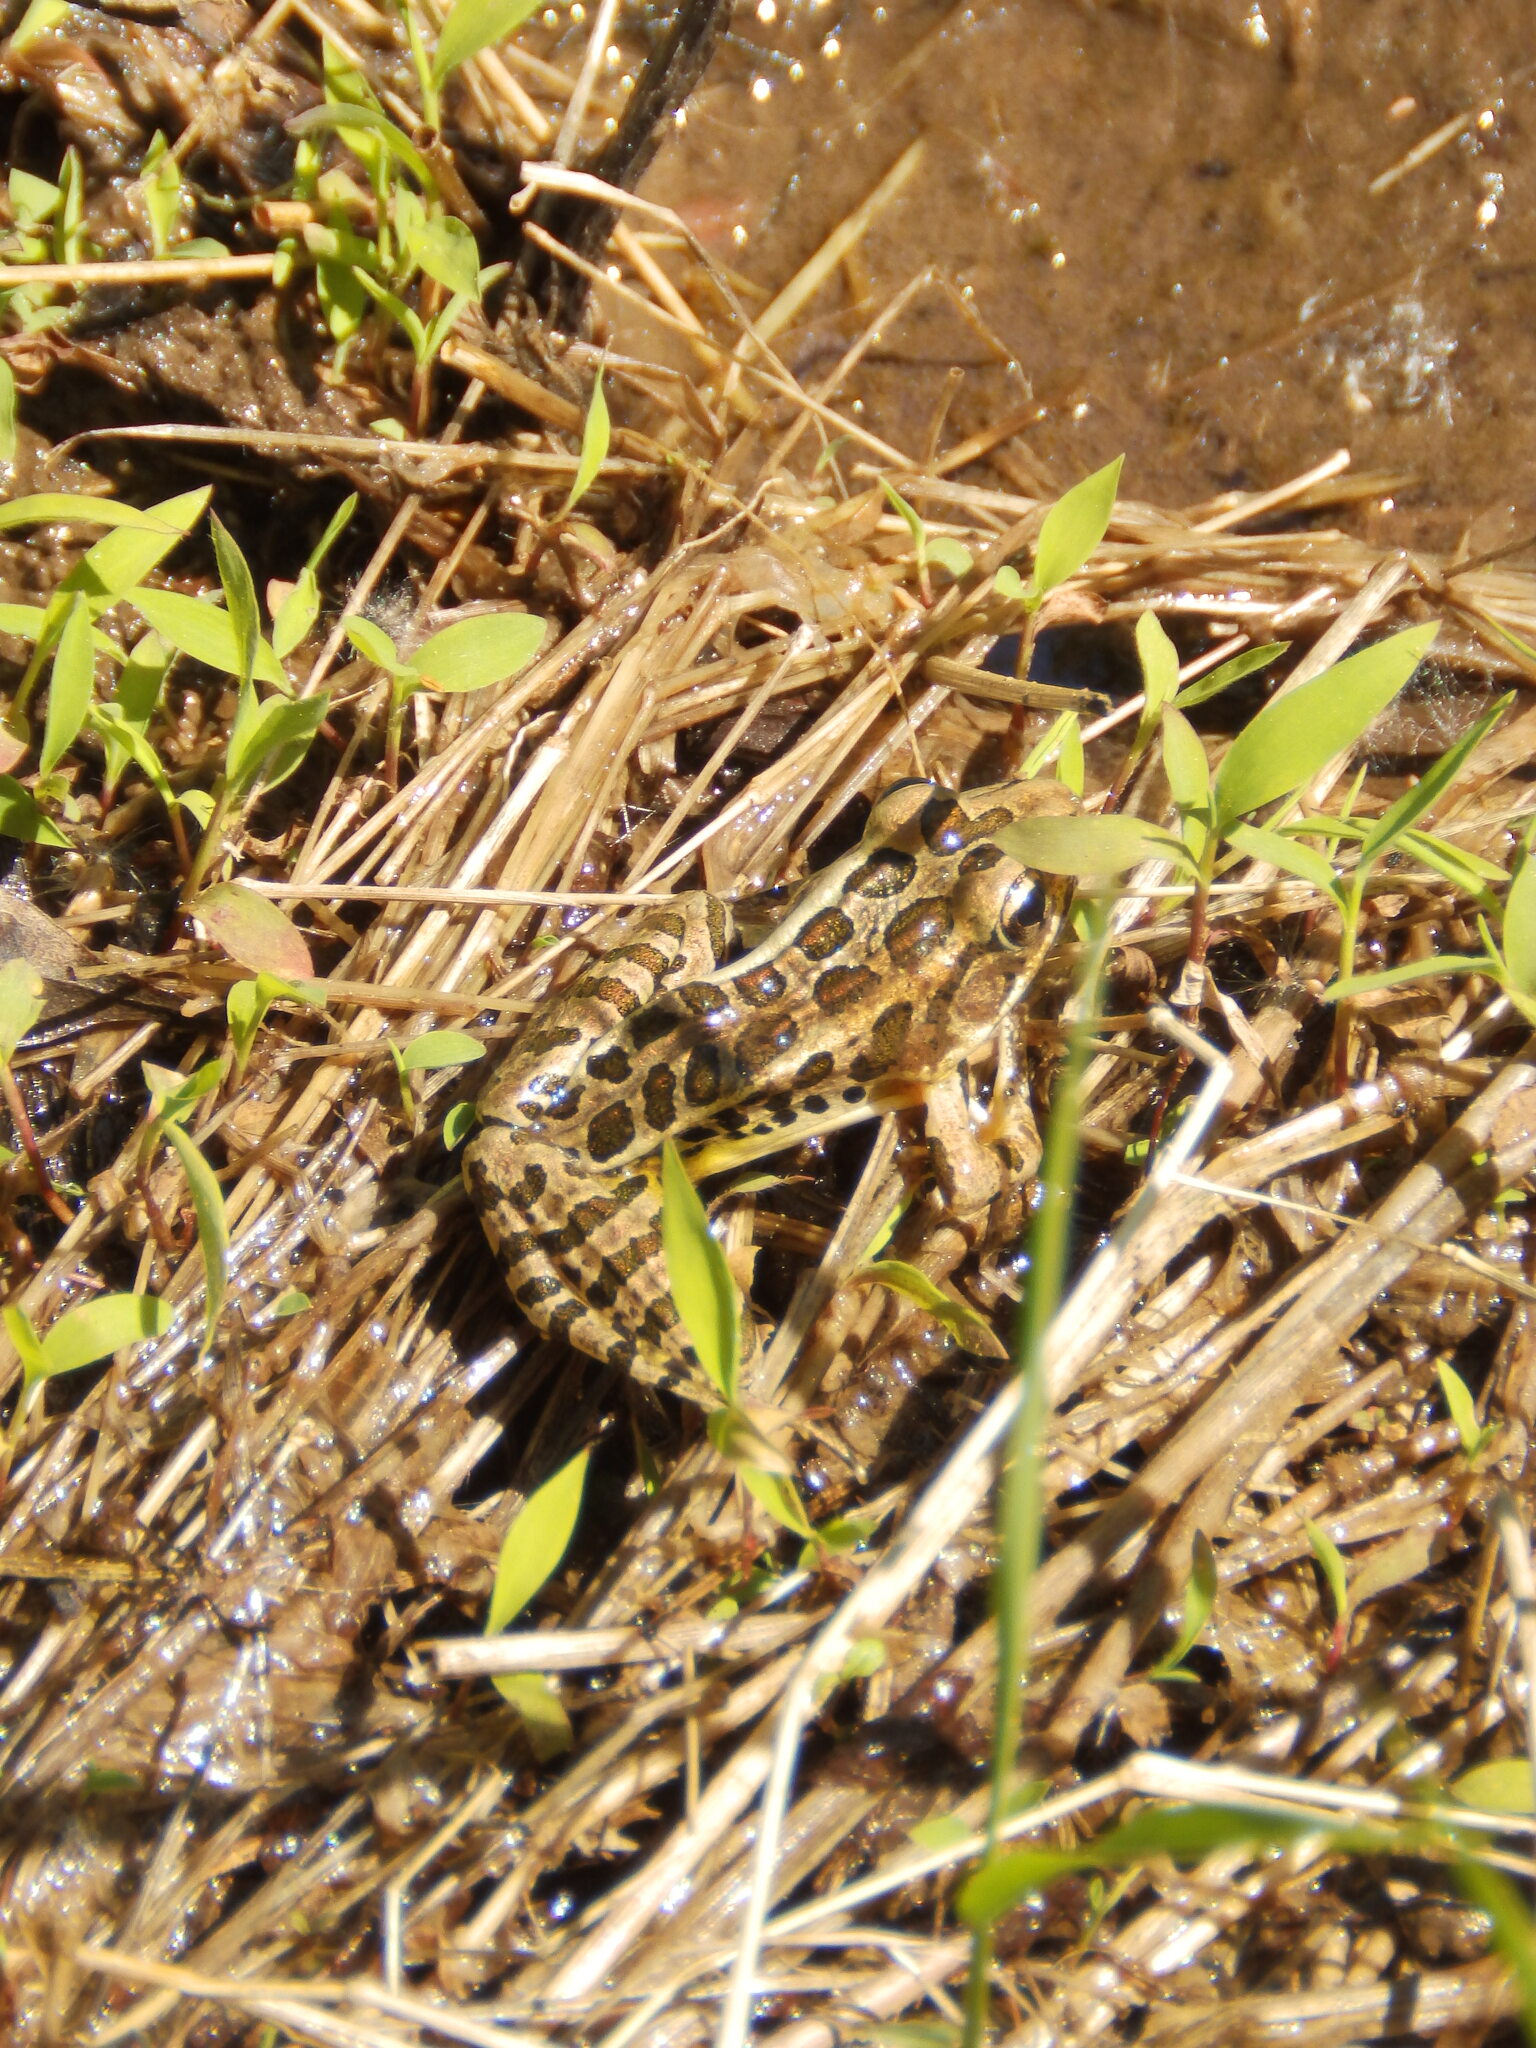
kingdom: Animalia
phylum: Chordata
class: Amphibia
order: Anura
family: Ranidae
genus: Lithobates
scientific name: Lithobates palustris
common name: Pickerel frog
